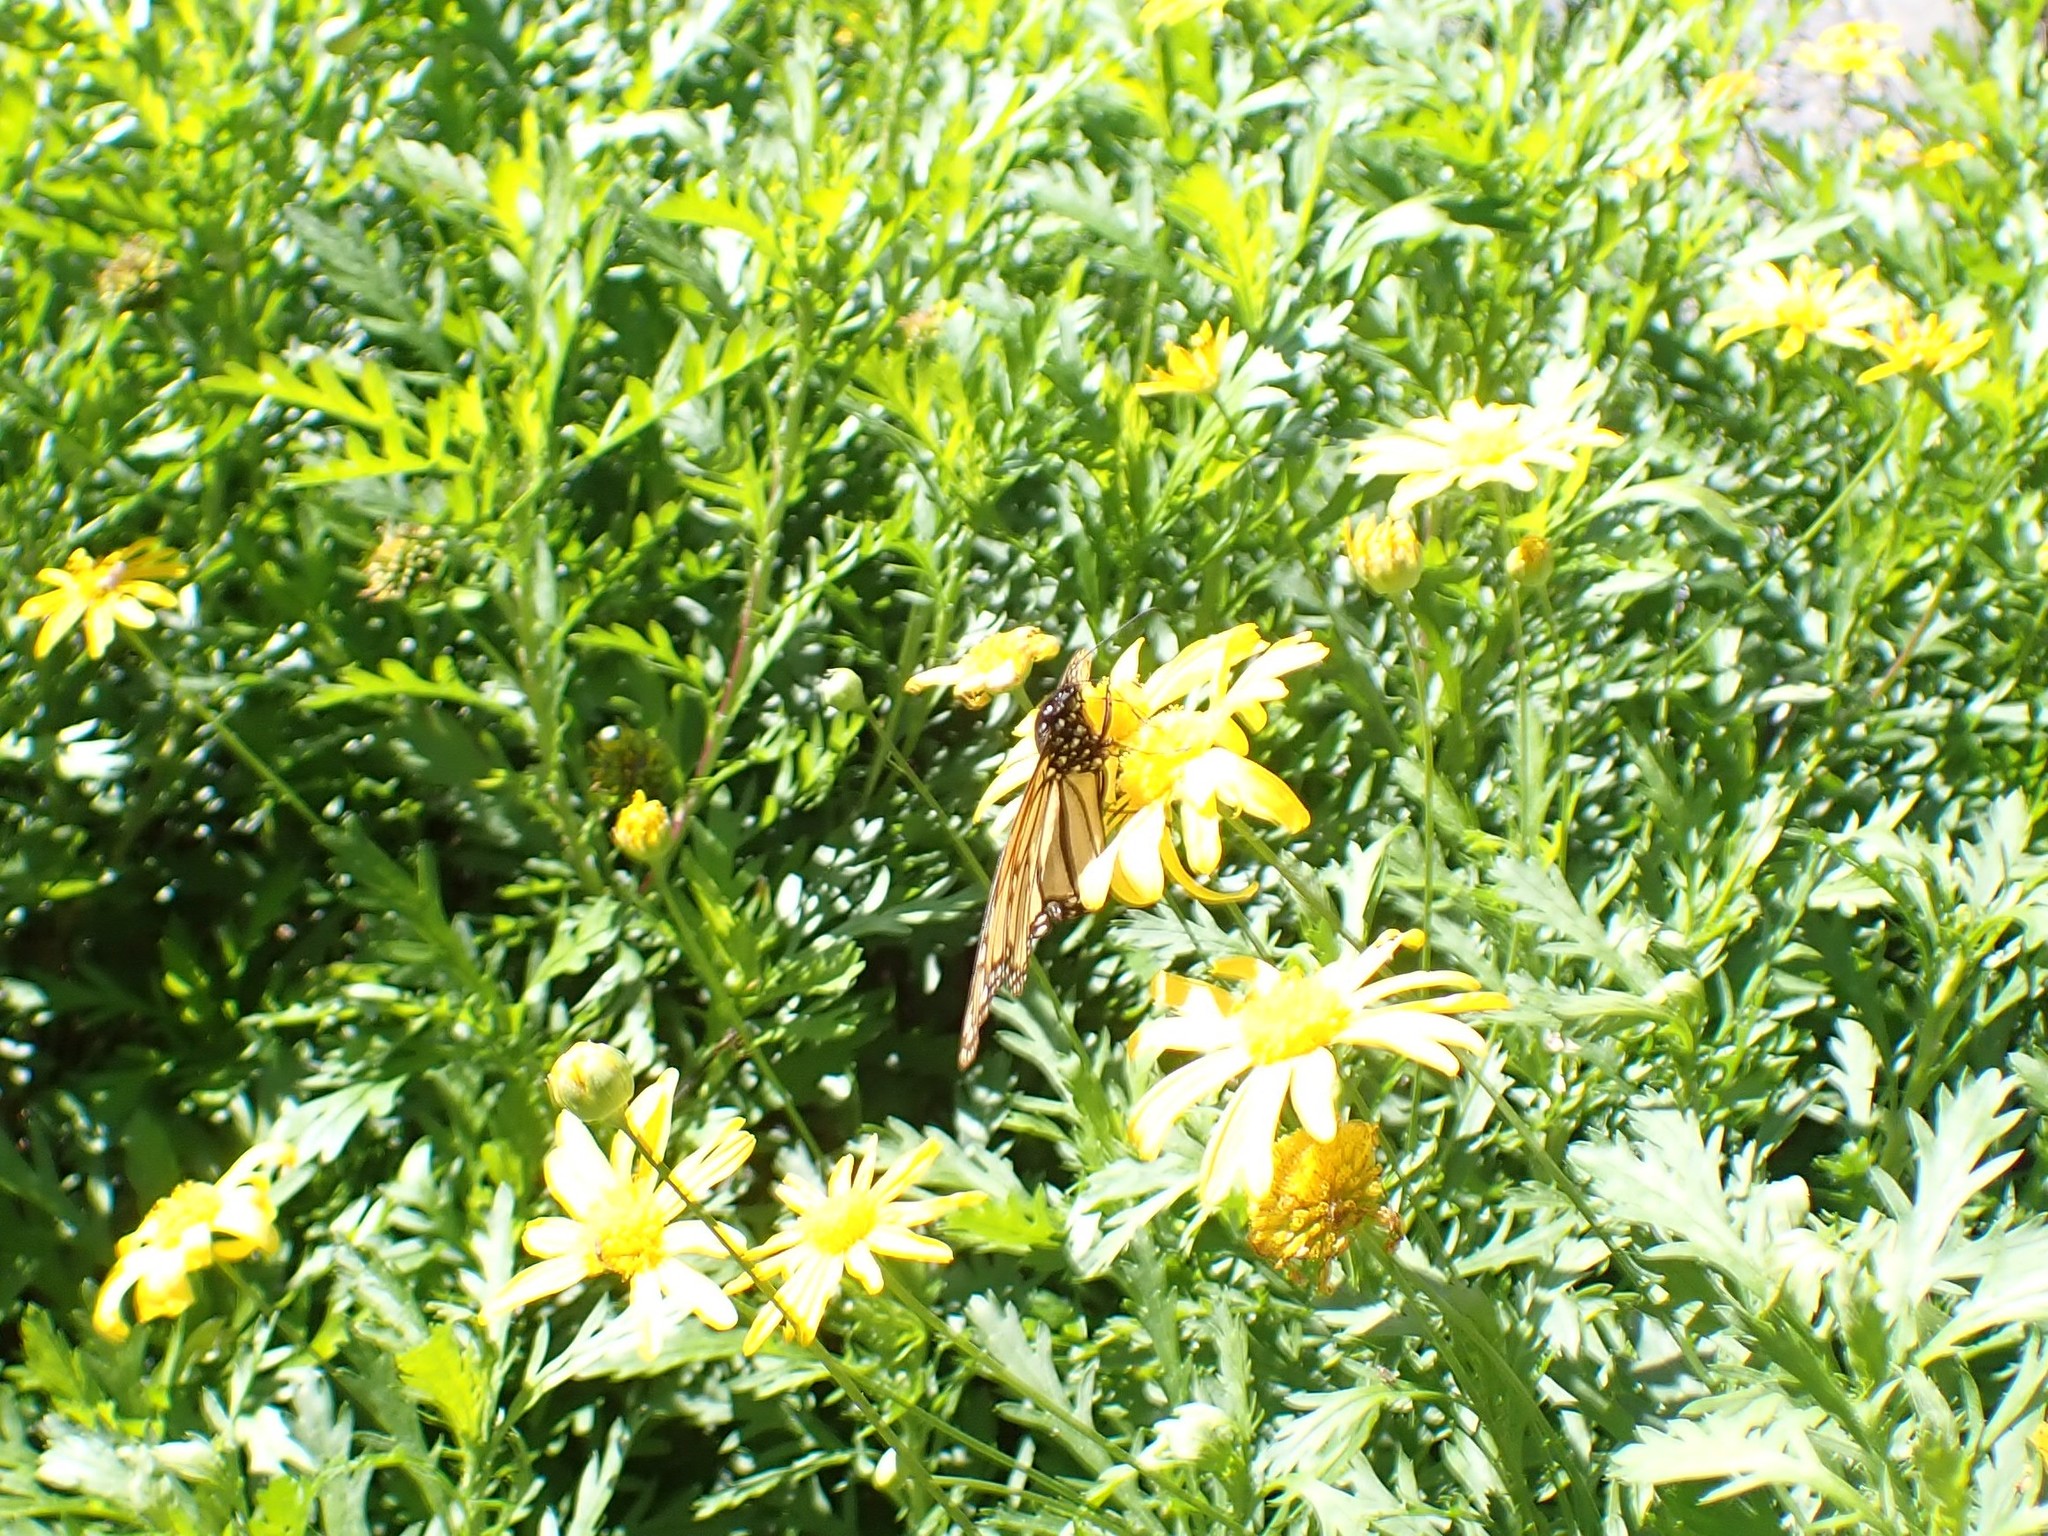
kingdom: Animalia
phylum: Arthropoda
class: Insecta
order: Lepidoptera
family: Nymphalidae
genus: Danaus
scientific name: Danaus plexippus
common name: Monarch
